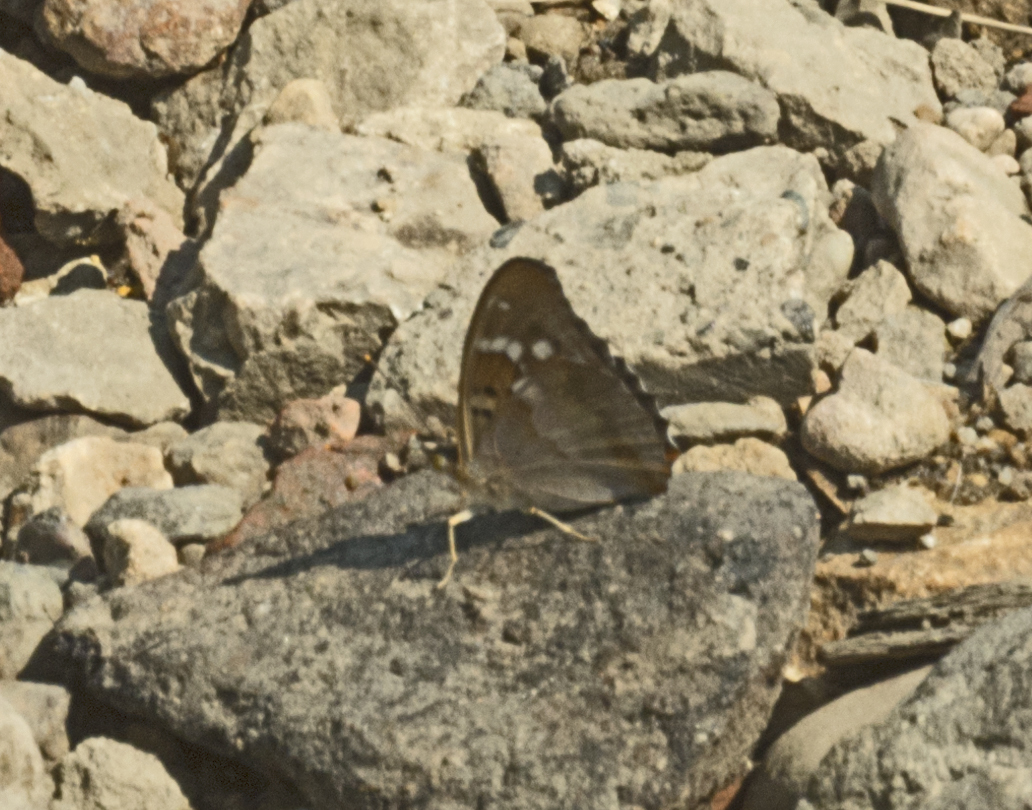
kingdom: Animalia
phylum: Arthropoda
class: Insecta
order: Lepidoptera
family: Nymphalidae
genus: Apatura
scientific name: Apatura ilia
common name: Lesser purple emperor
